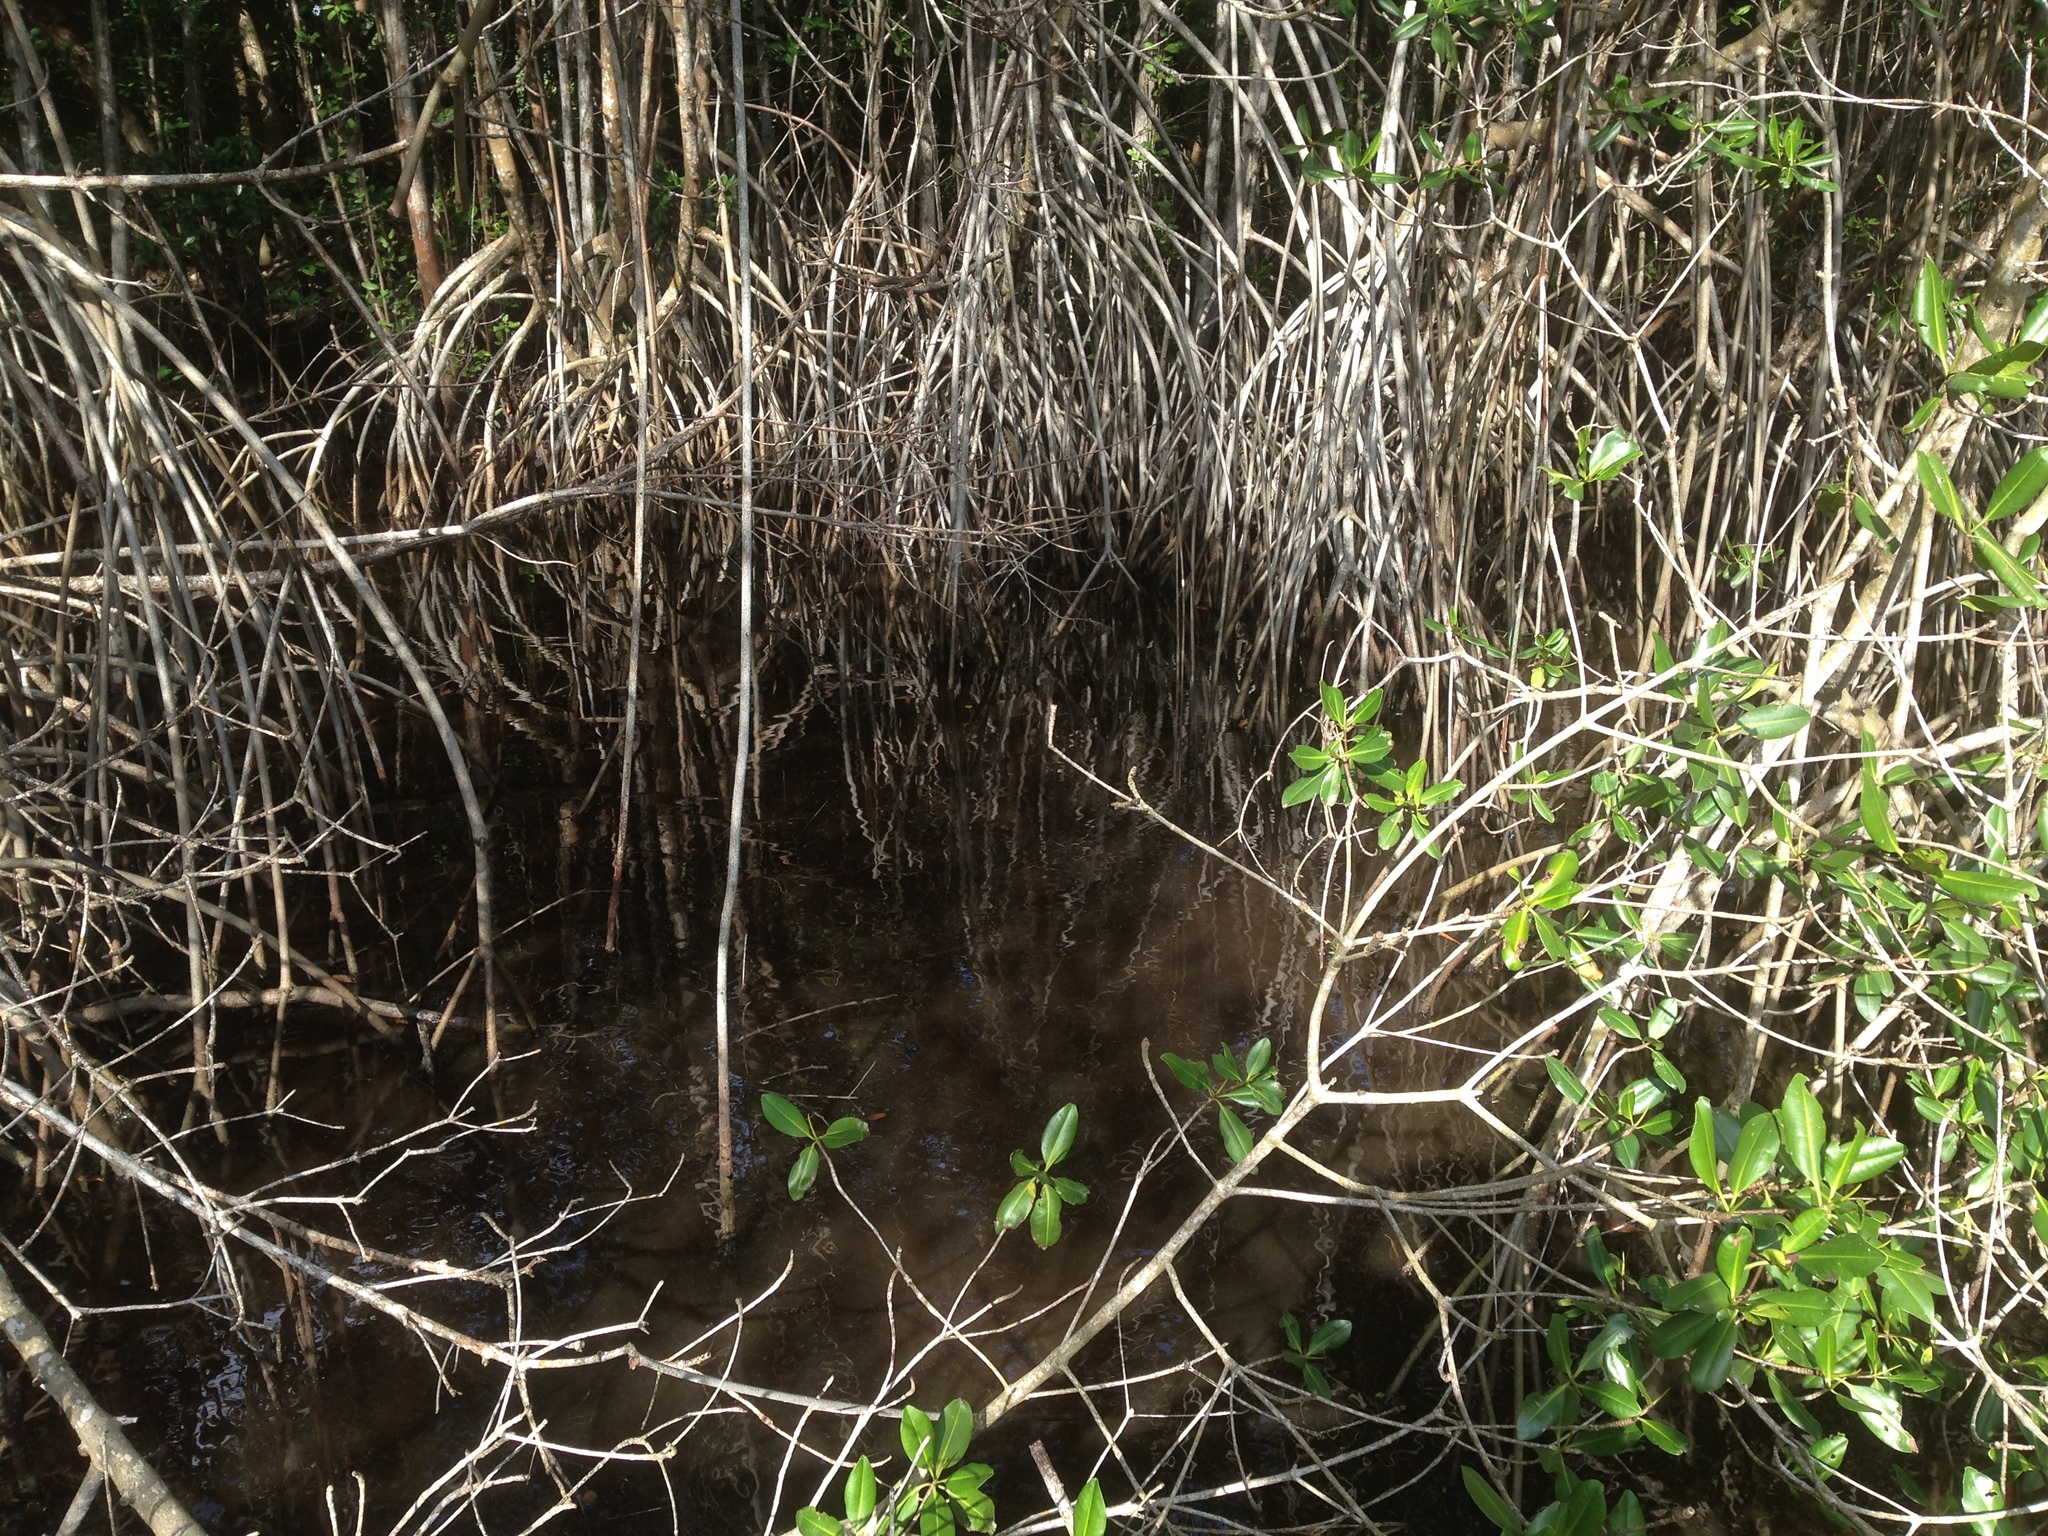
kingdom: Plantae
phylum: Tracheophyta
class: Magnoliopsida
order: Malpighiales
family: Rhizophoraceae
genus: Rhizophora
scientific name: Rhizophora mangle
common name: Red mangrove
